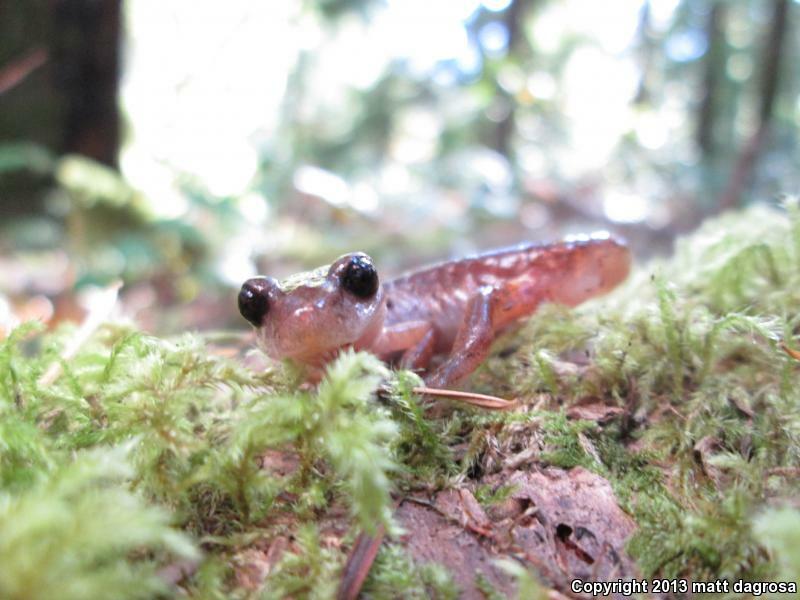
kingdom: Animalia
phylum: Chordata
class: Amphibia
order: Caudata
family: Plethodontidae
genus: Ensatina
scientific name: Ensatina eschscholtzii
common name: Ensatina
